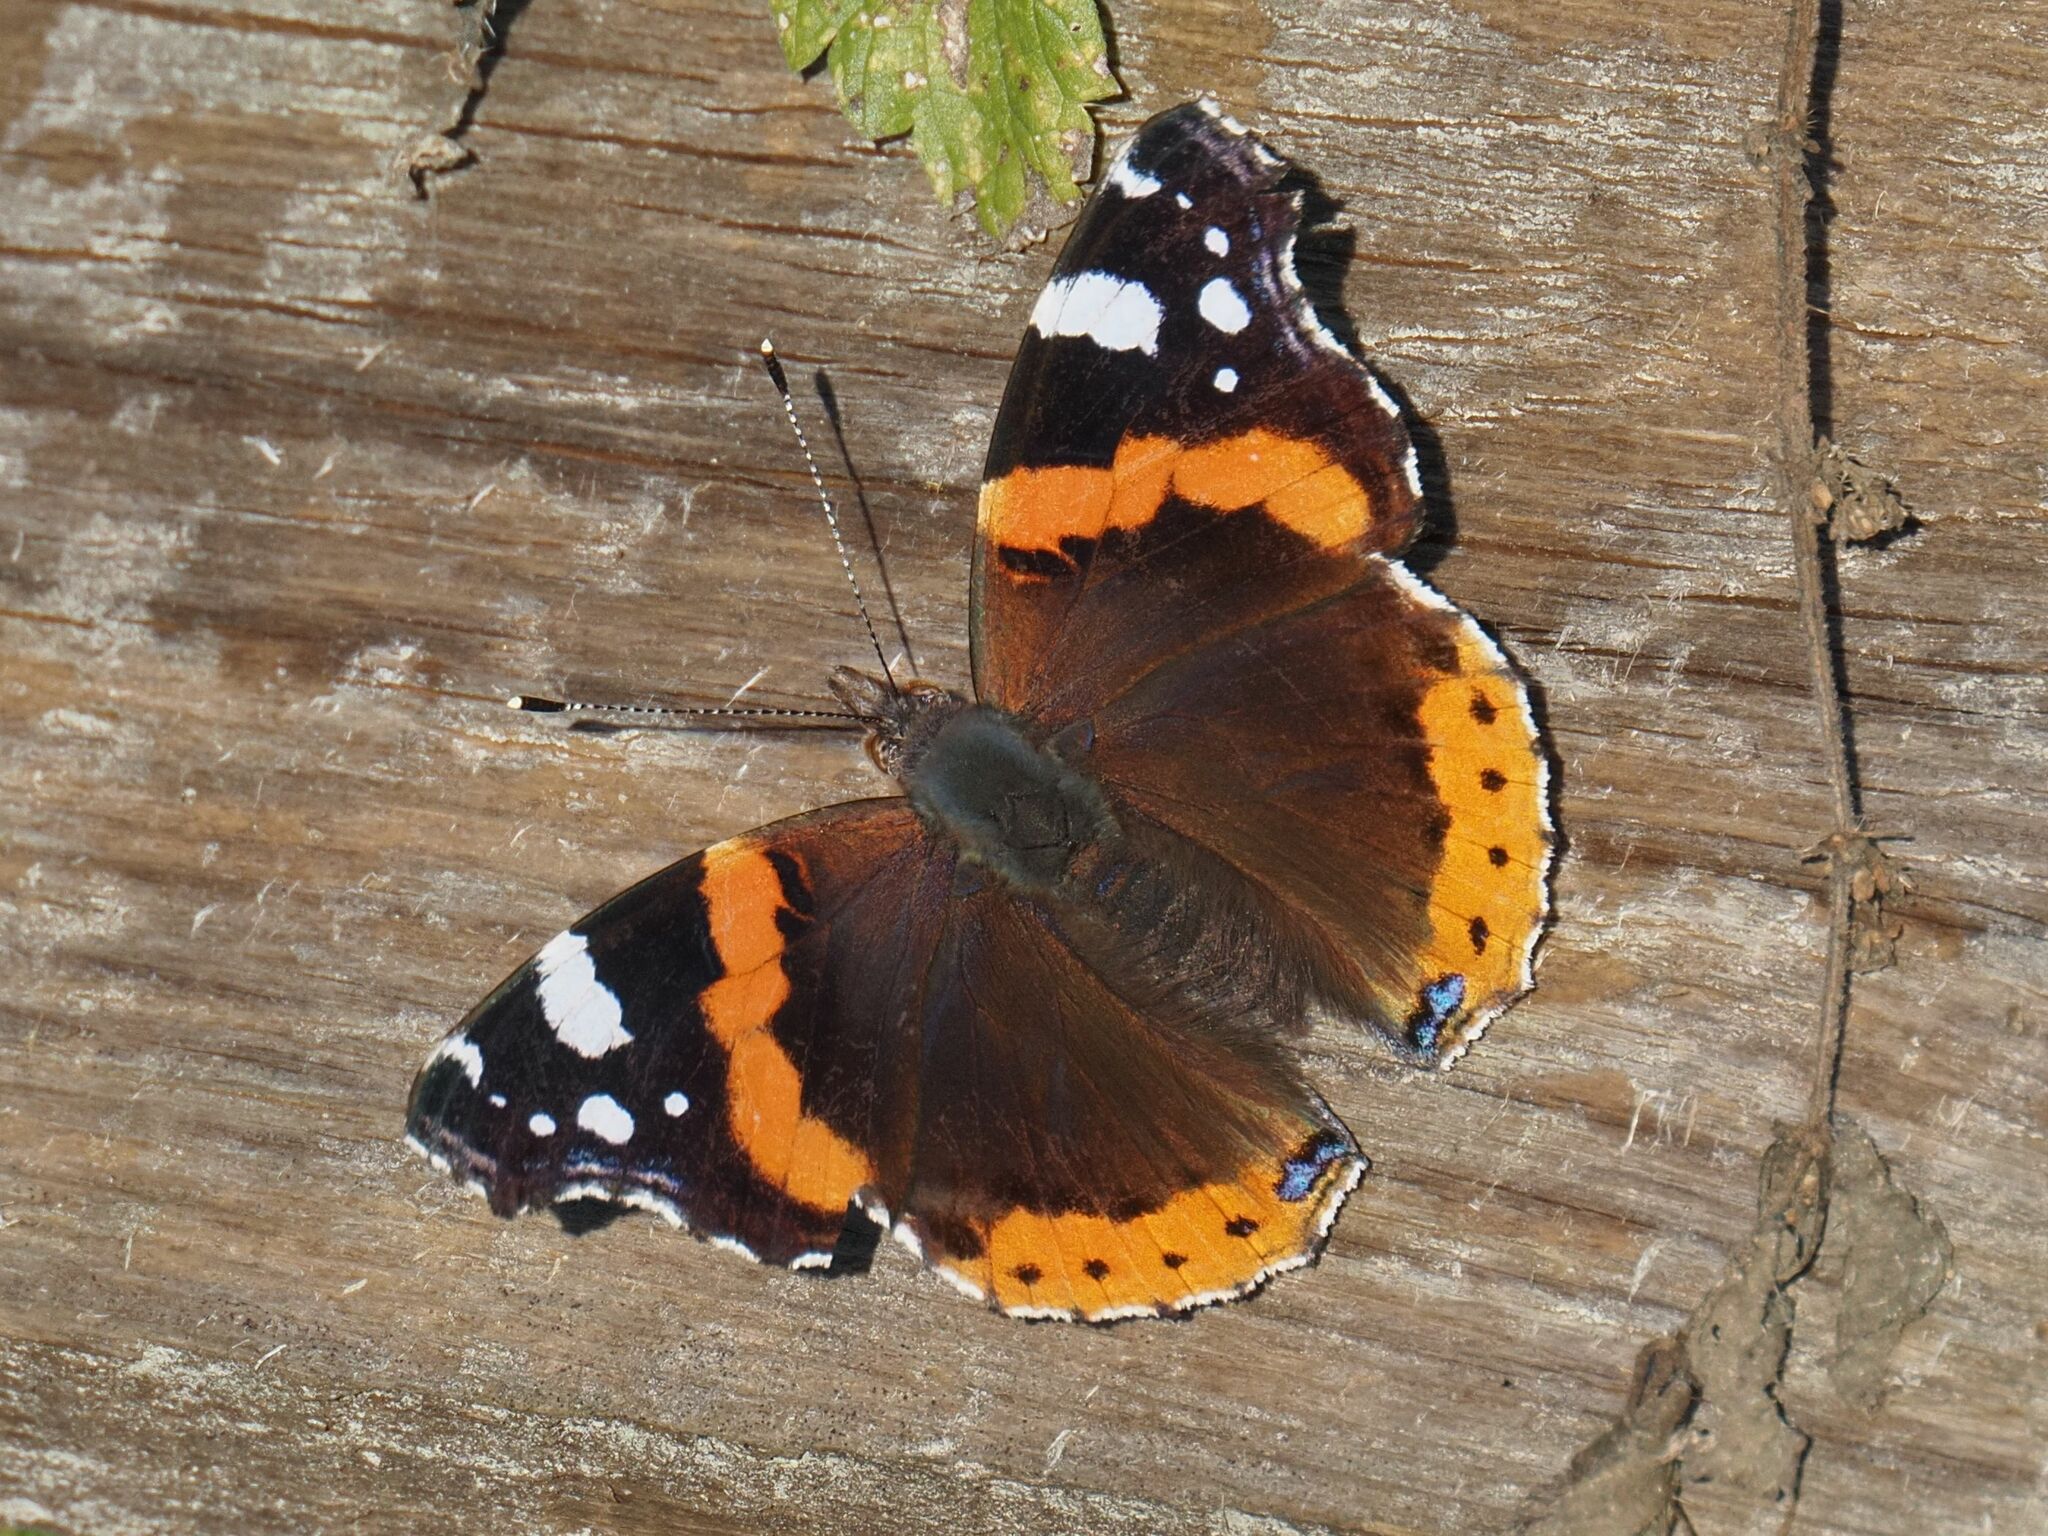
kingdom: Animalia
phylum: Arthropoda
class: Insecta
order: Lepidoptera
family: Nymphalidae
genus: Vanessa
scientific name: Vanessa atalanta
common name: Red admiral
